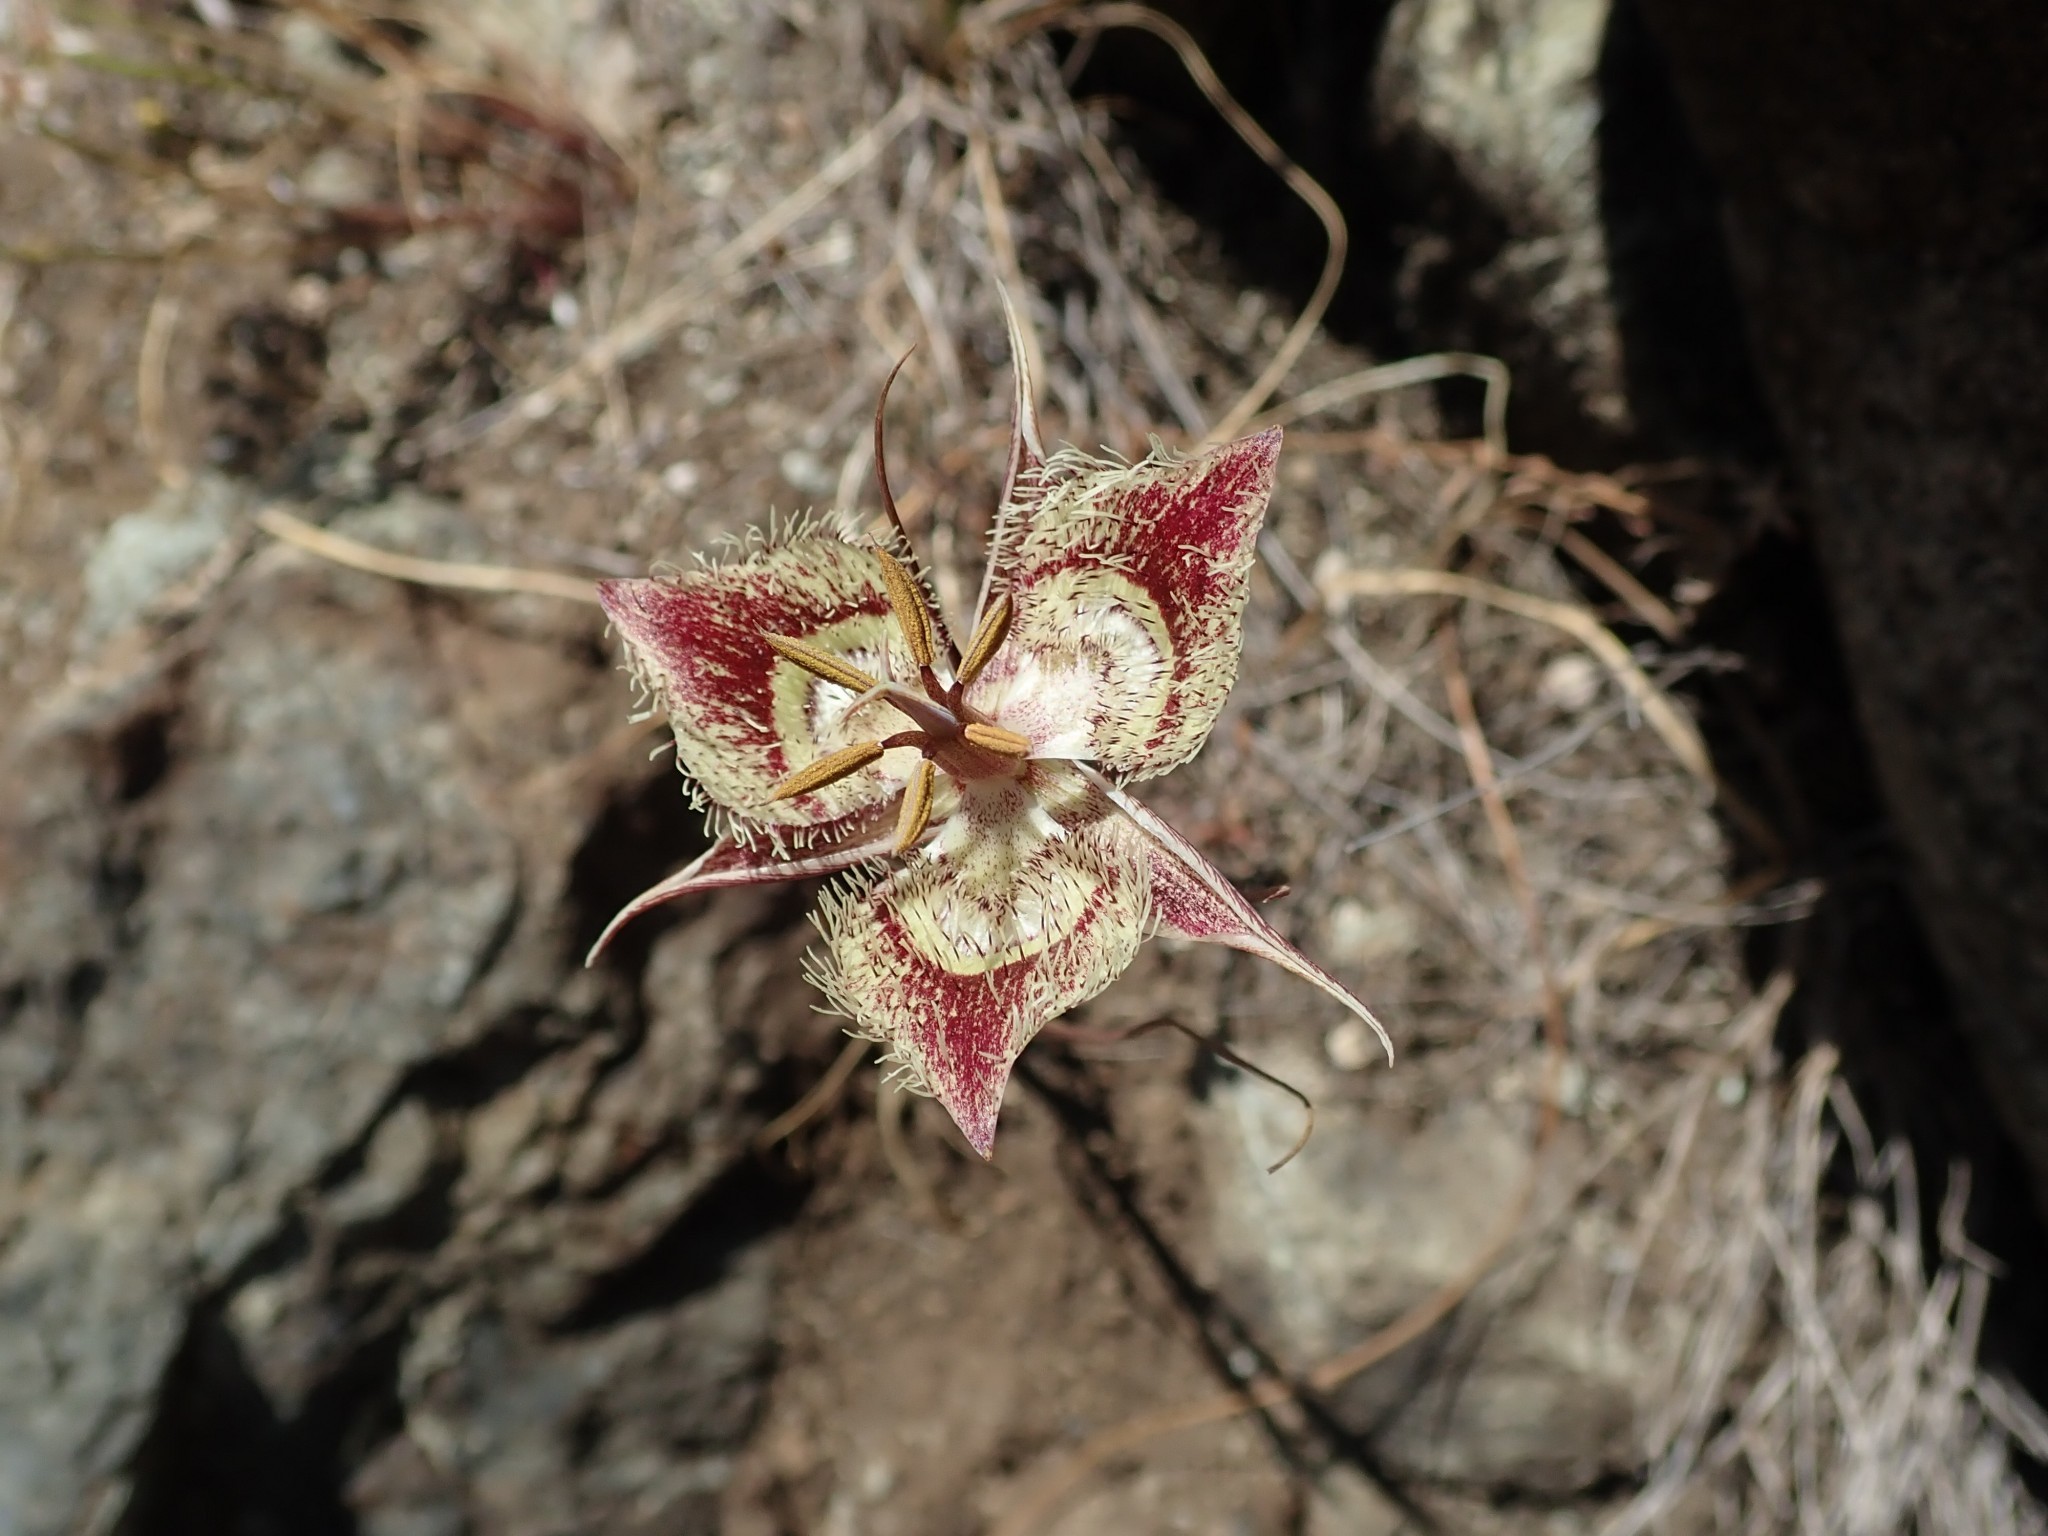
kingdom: Plantae
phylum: Tracheophyta
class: Liliopsida
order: Liliales
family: Liliaceae
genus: Calochortus
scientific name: Calochortus tiburonensis
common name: Tiburon mariposa-lily
